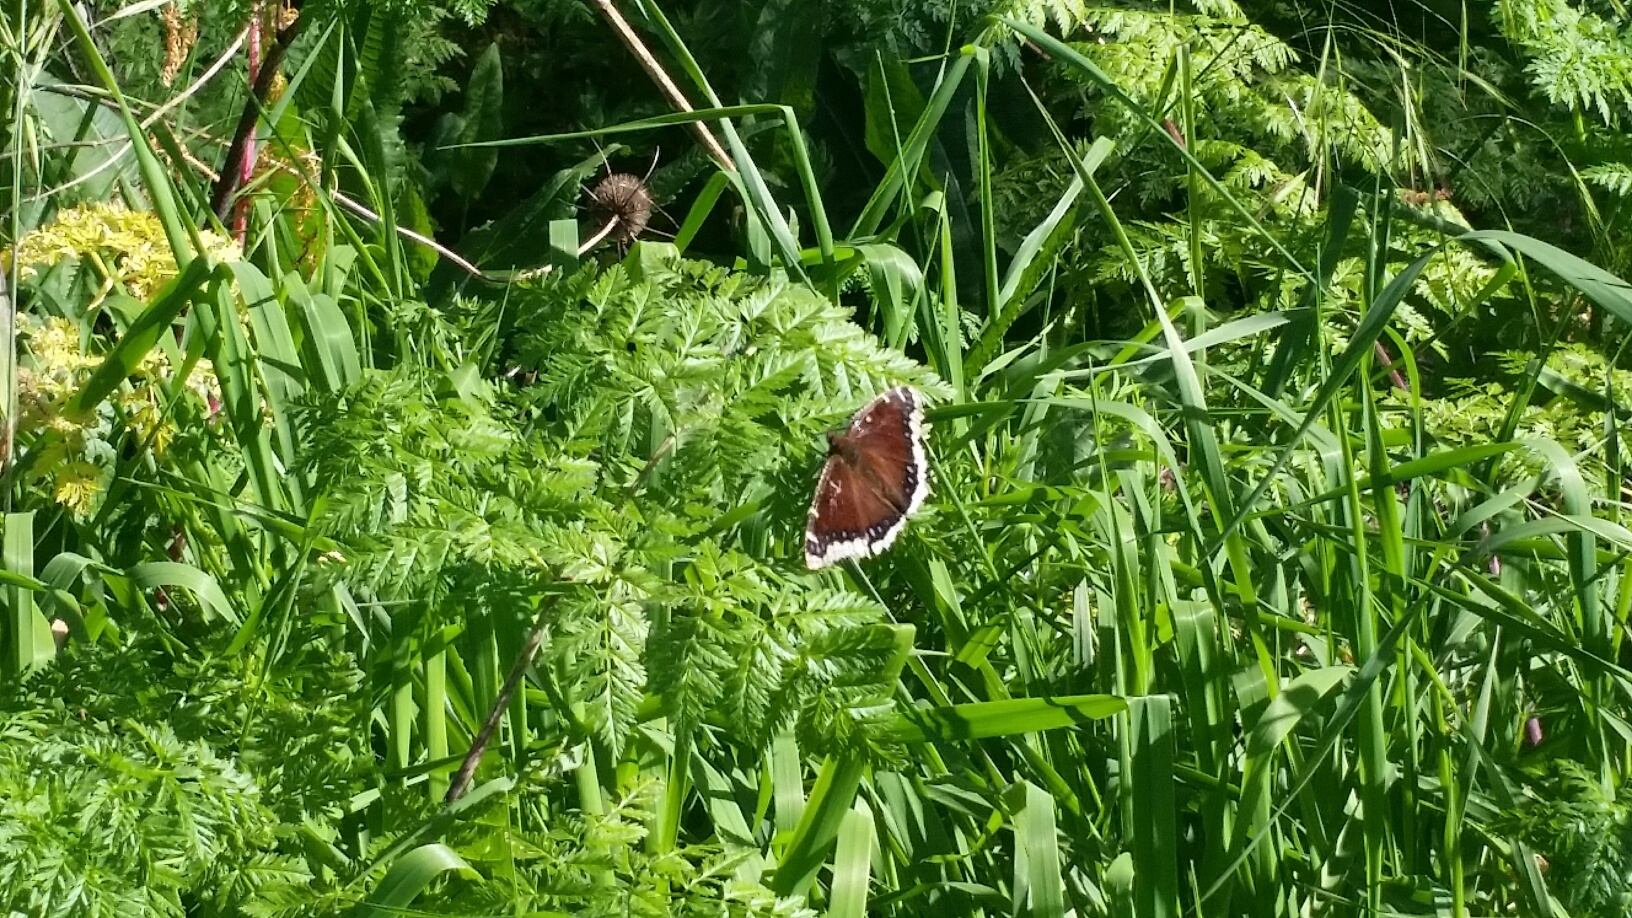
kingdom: Animalia
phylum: Arthropoda
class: Insecta
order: Lepidoptera
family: Nymphalidae
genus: Nymphalis
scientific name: Nymphalis antiopa
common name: Camberwell beauty
